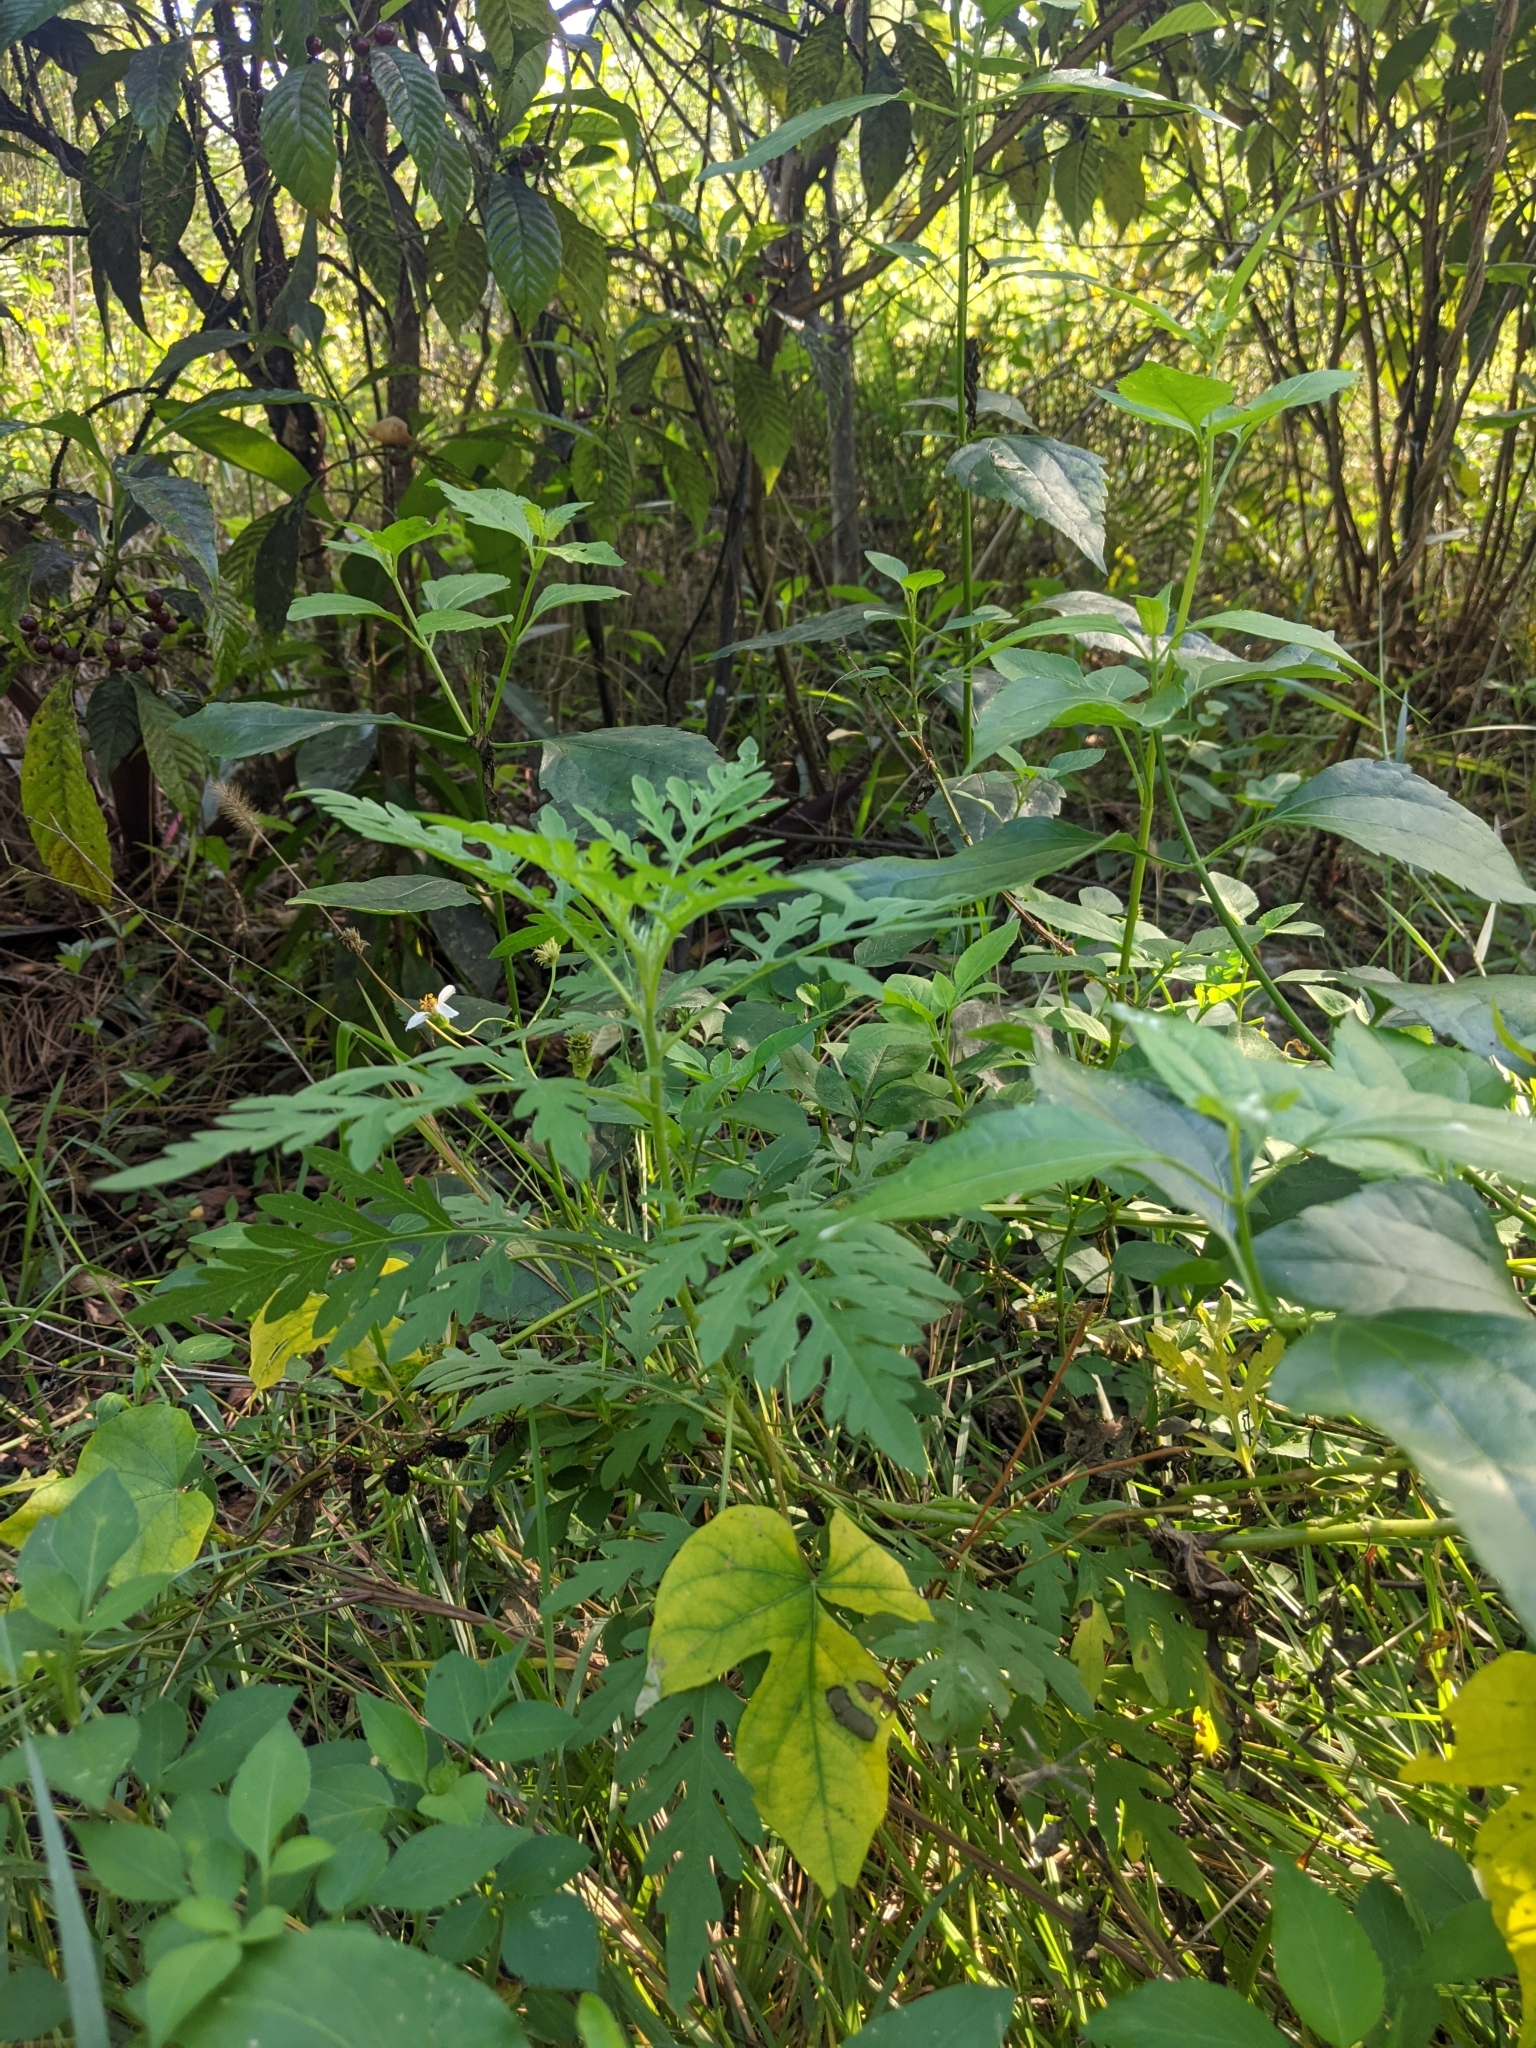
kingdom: Plantae
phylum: Tracheophyta
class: Magnoliopsida
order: Asterales
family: Asteraceae
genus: Ambrosia
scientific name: Ambrosia artemisiifolia
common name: Annual ragweed
